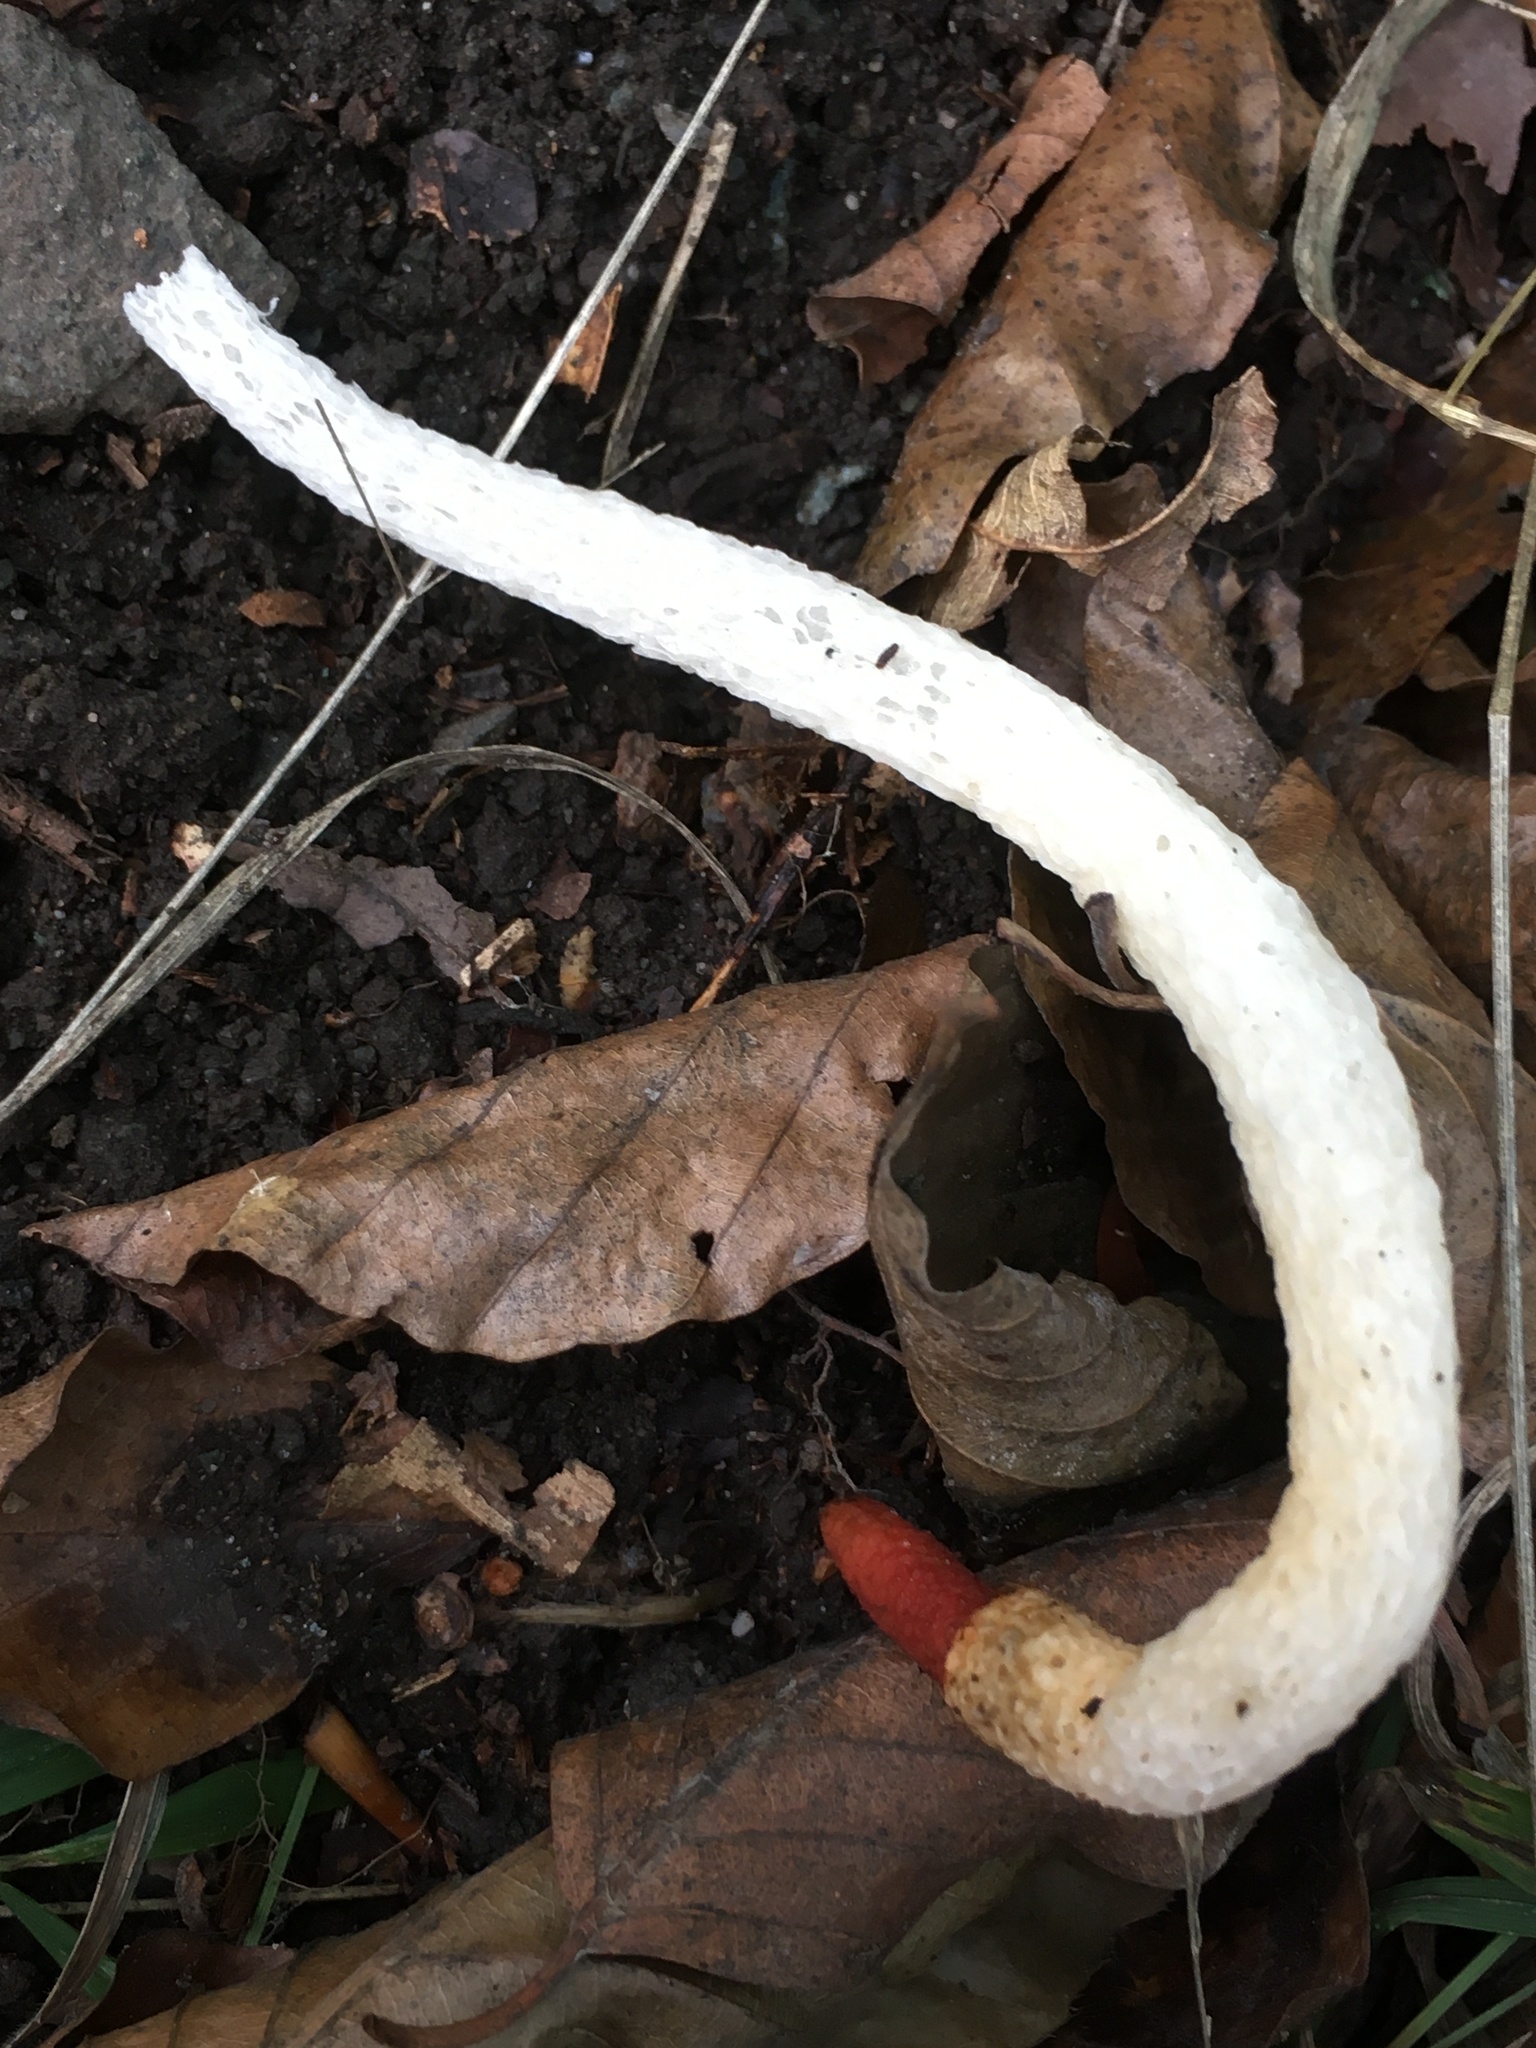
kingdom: Fungi
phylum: Basidiomycota
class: Agaricomycetes
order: Phallales
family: Phallaceae
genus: Mutinus
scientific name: Mutinus caninus
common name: Dog stinkhorn
